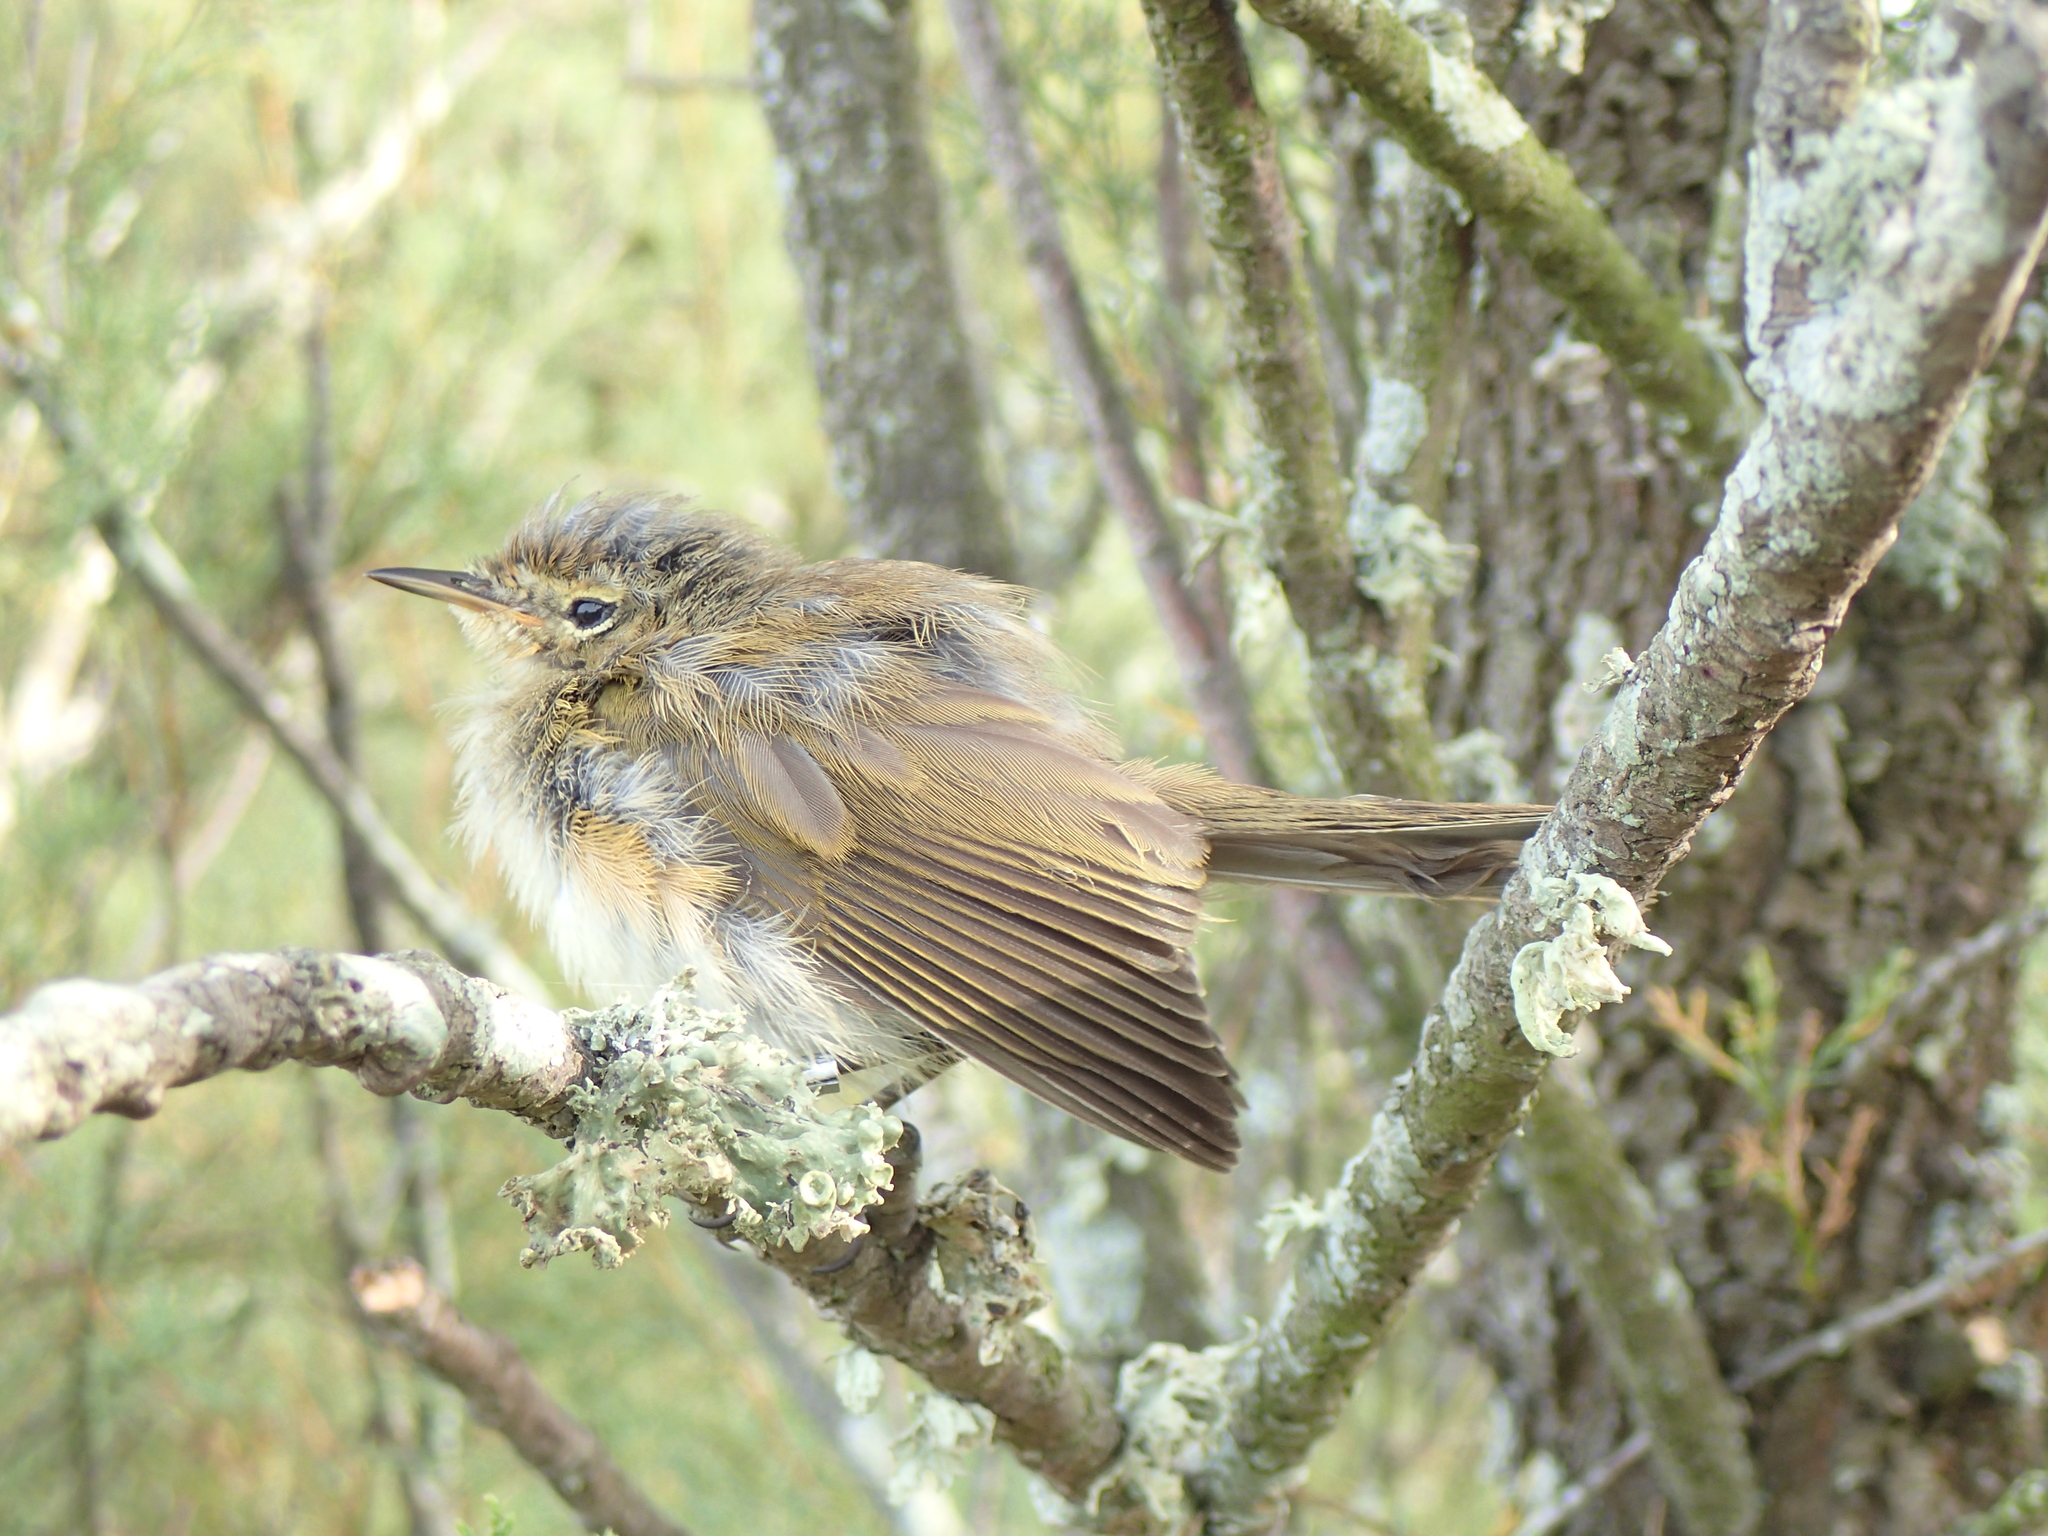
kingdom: Animalia
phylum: Chordata
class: Aves
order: Passeriformes
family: Phylloscopidae
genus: Phylloscopus
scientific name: Phylloscopus collybita
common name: Common chiffchaff
